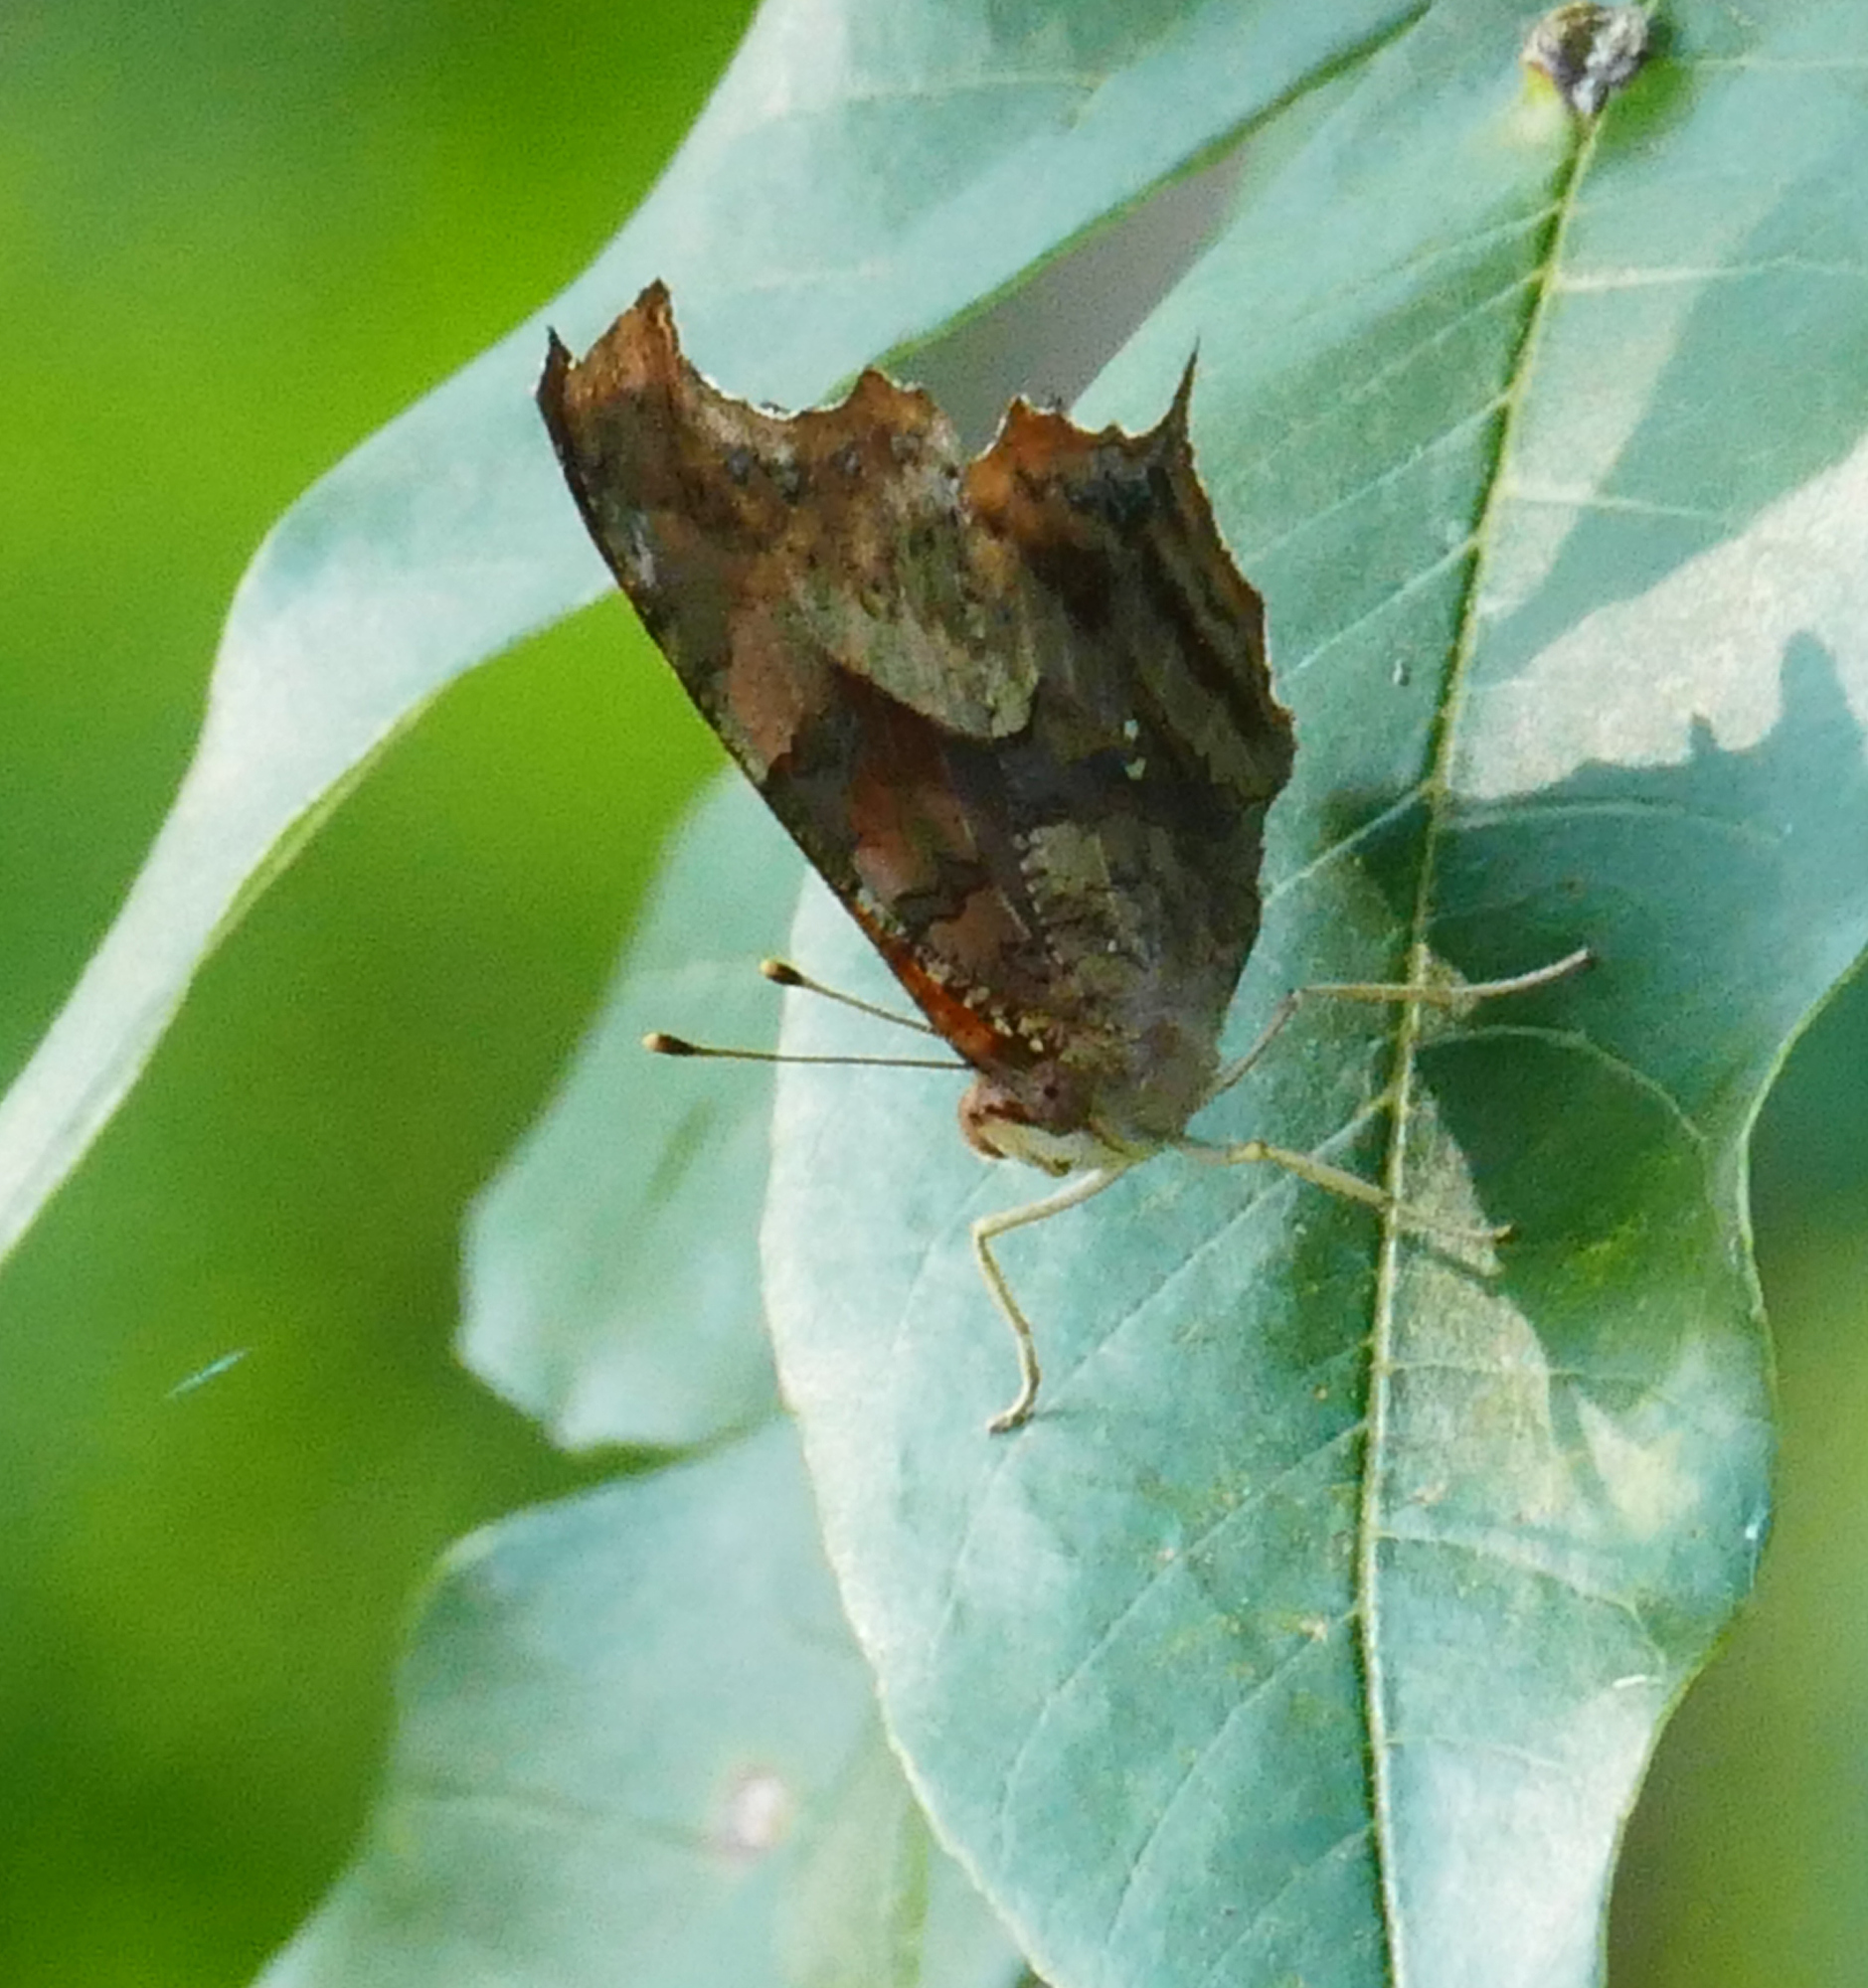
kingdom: Animalia
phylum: Arthropoda
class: Insecta
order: Lepidoptera
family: Nymphalidae
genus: Polygonia
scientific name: Polygonia interrogationis
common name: Question mark
